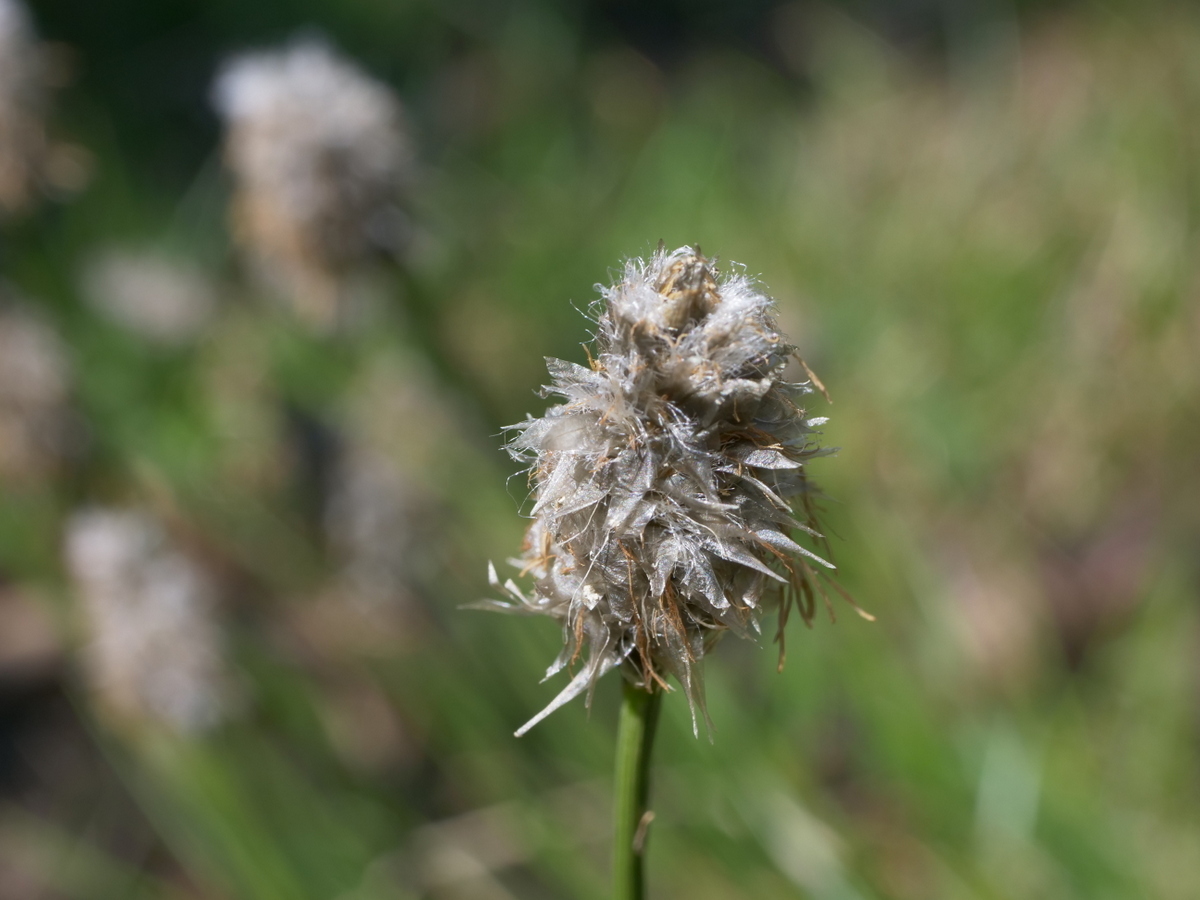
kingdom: Plantae
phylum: Tracheophyta
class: Liliopsida
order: Poales
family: Cyperaceae
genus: Eriophorum
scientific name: Eriophorum vaginatum
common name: Hare's-tail cottongrass
